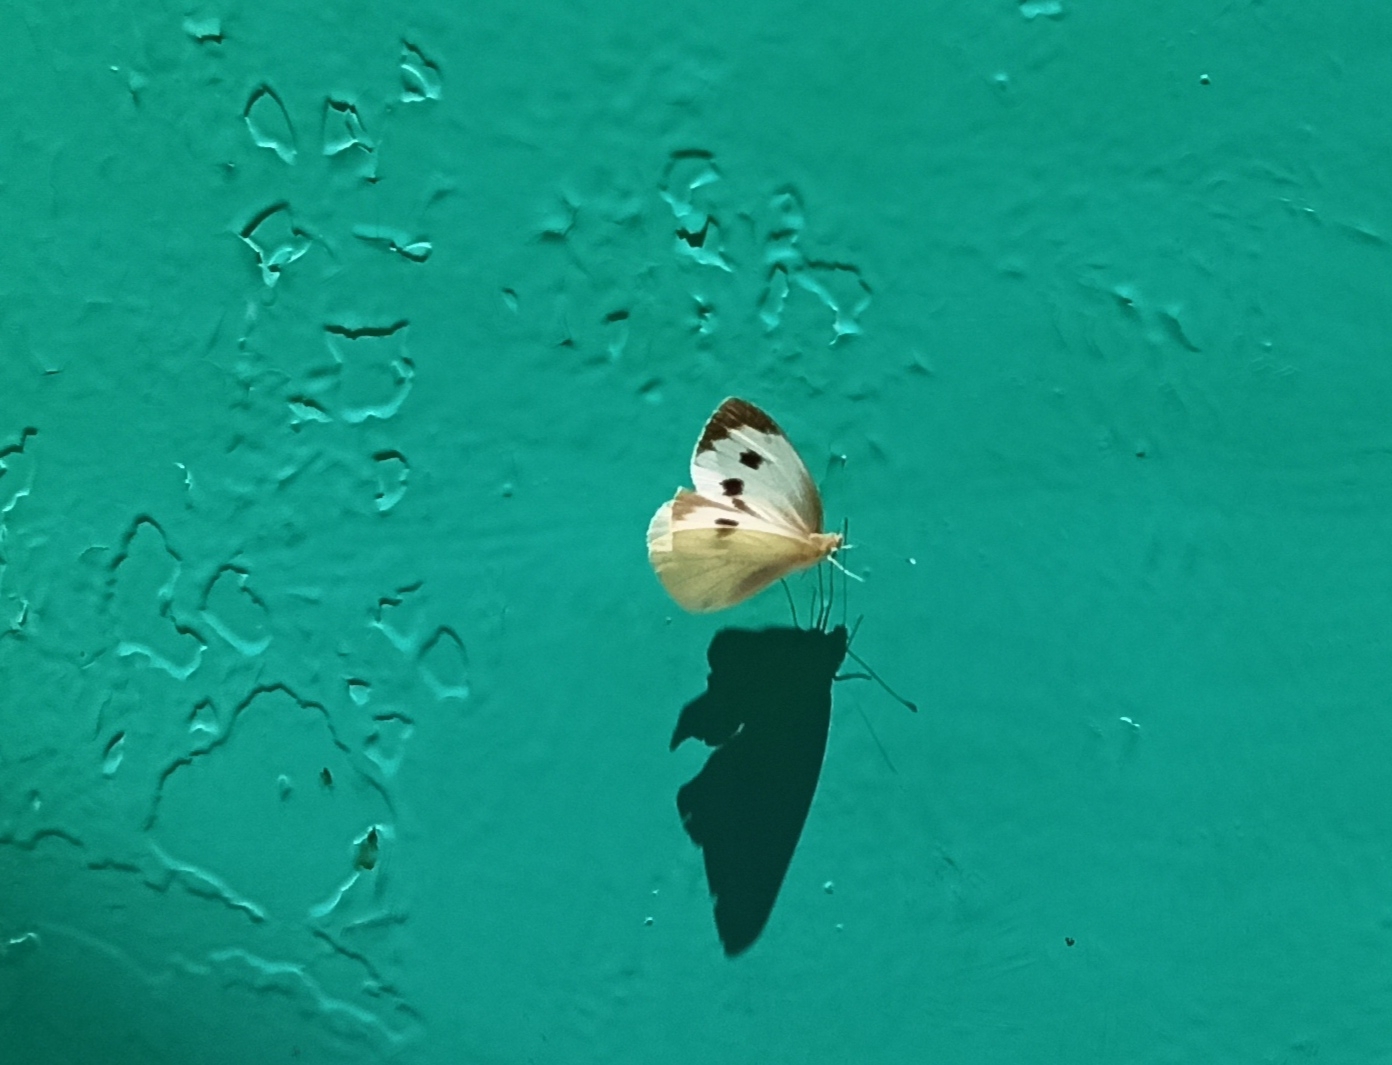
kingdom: Animalia
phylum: Arthropoda
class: Insecta
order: Lepidoptera
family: Pieridae
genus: Pieris
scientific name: Pieris brassicae
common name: Large white
